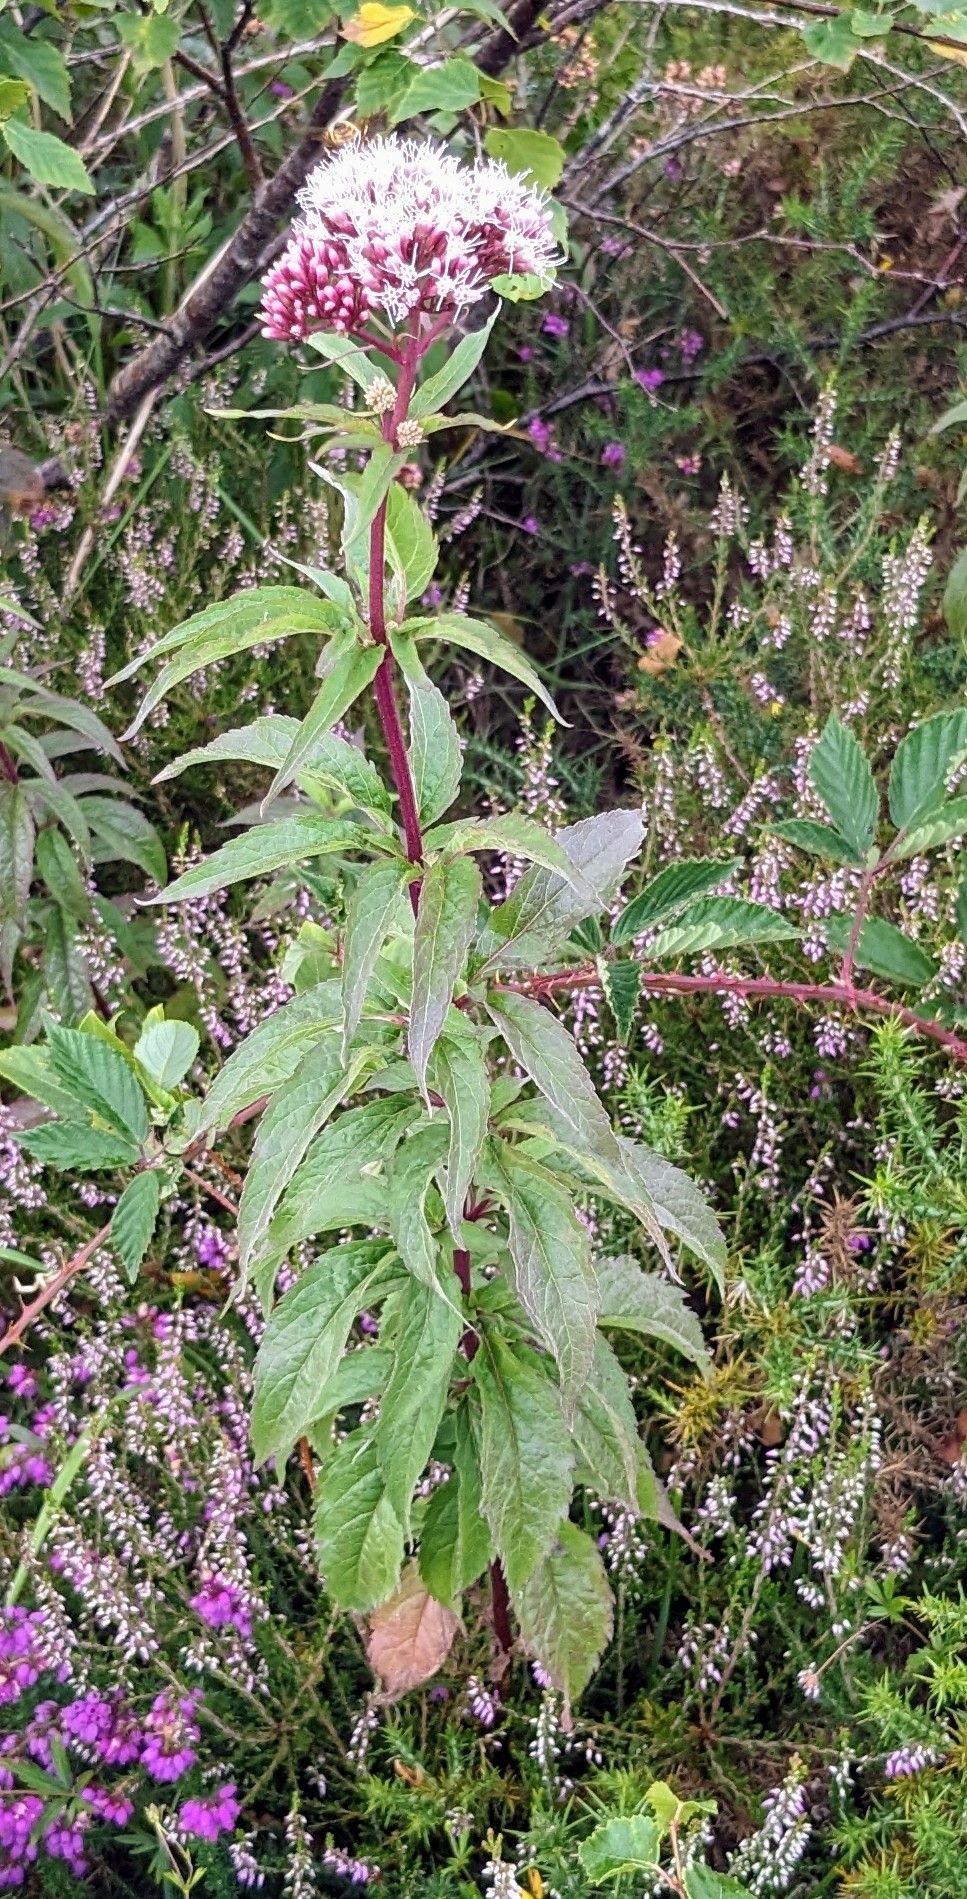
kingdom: Plantae
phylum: Tracheophyta
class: Magnoliopsida
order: Asterales
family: Asteraceae
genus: Eupatorium
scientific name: Eupatorium cannabinum
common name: Hemp-agrimony
